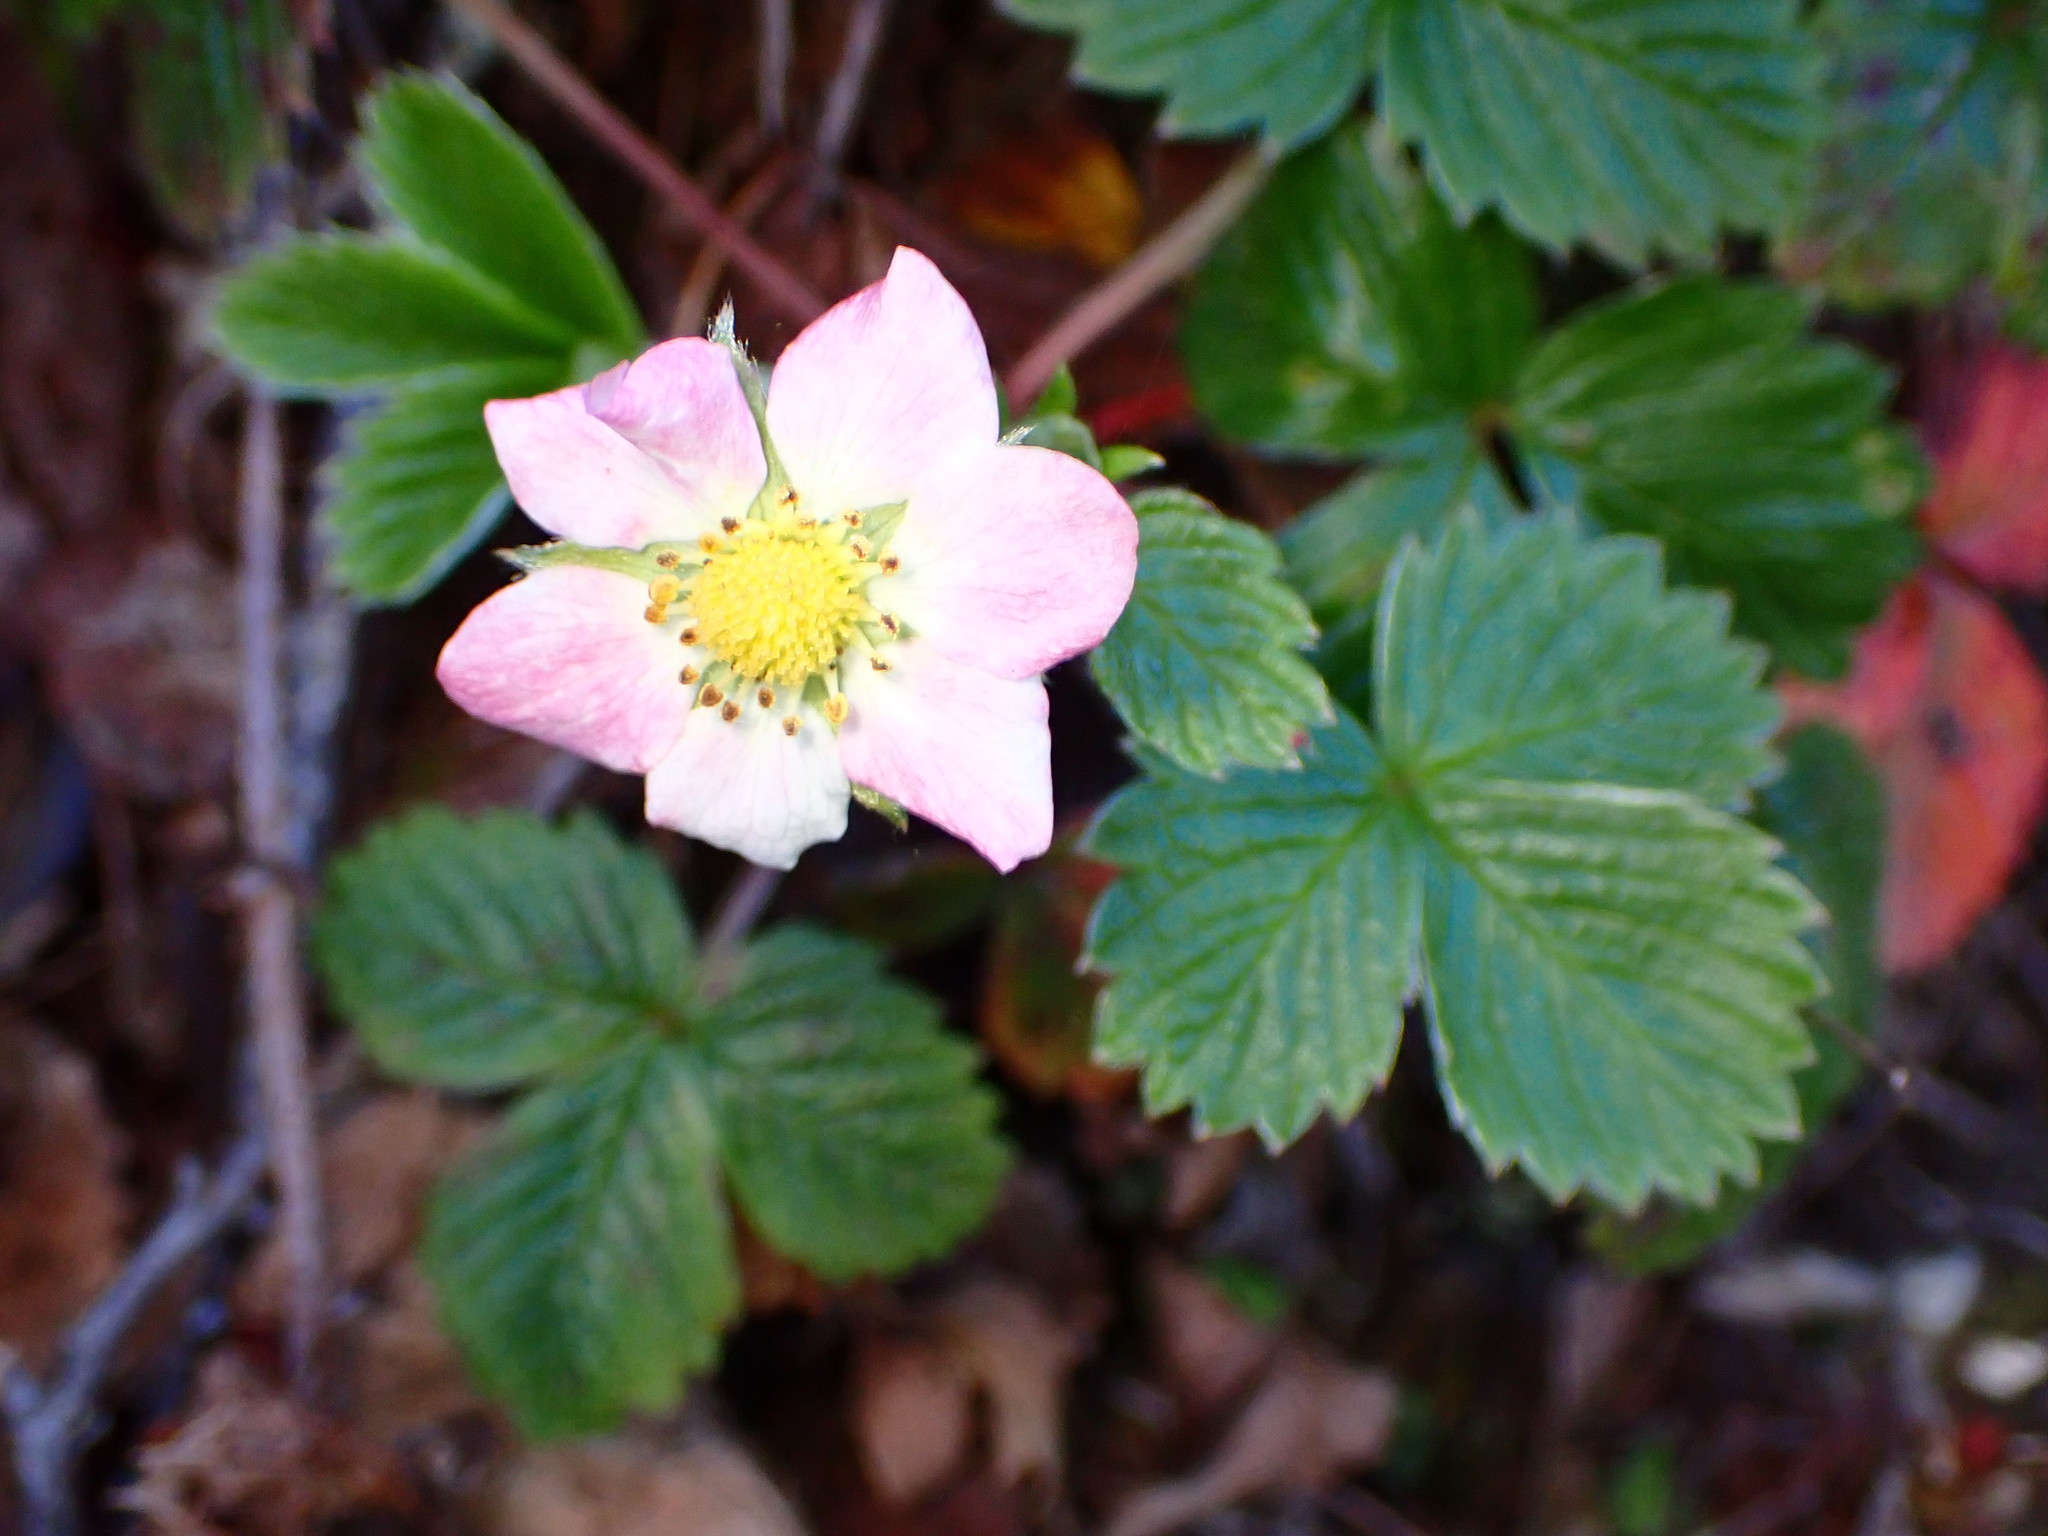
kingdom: Plantae
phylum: Tracheophyta
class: Magnoliopsida
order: Rosales
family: Rosaceae
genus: Fragaria
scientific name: Fragaria vesca
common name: Wild strawberry
